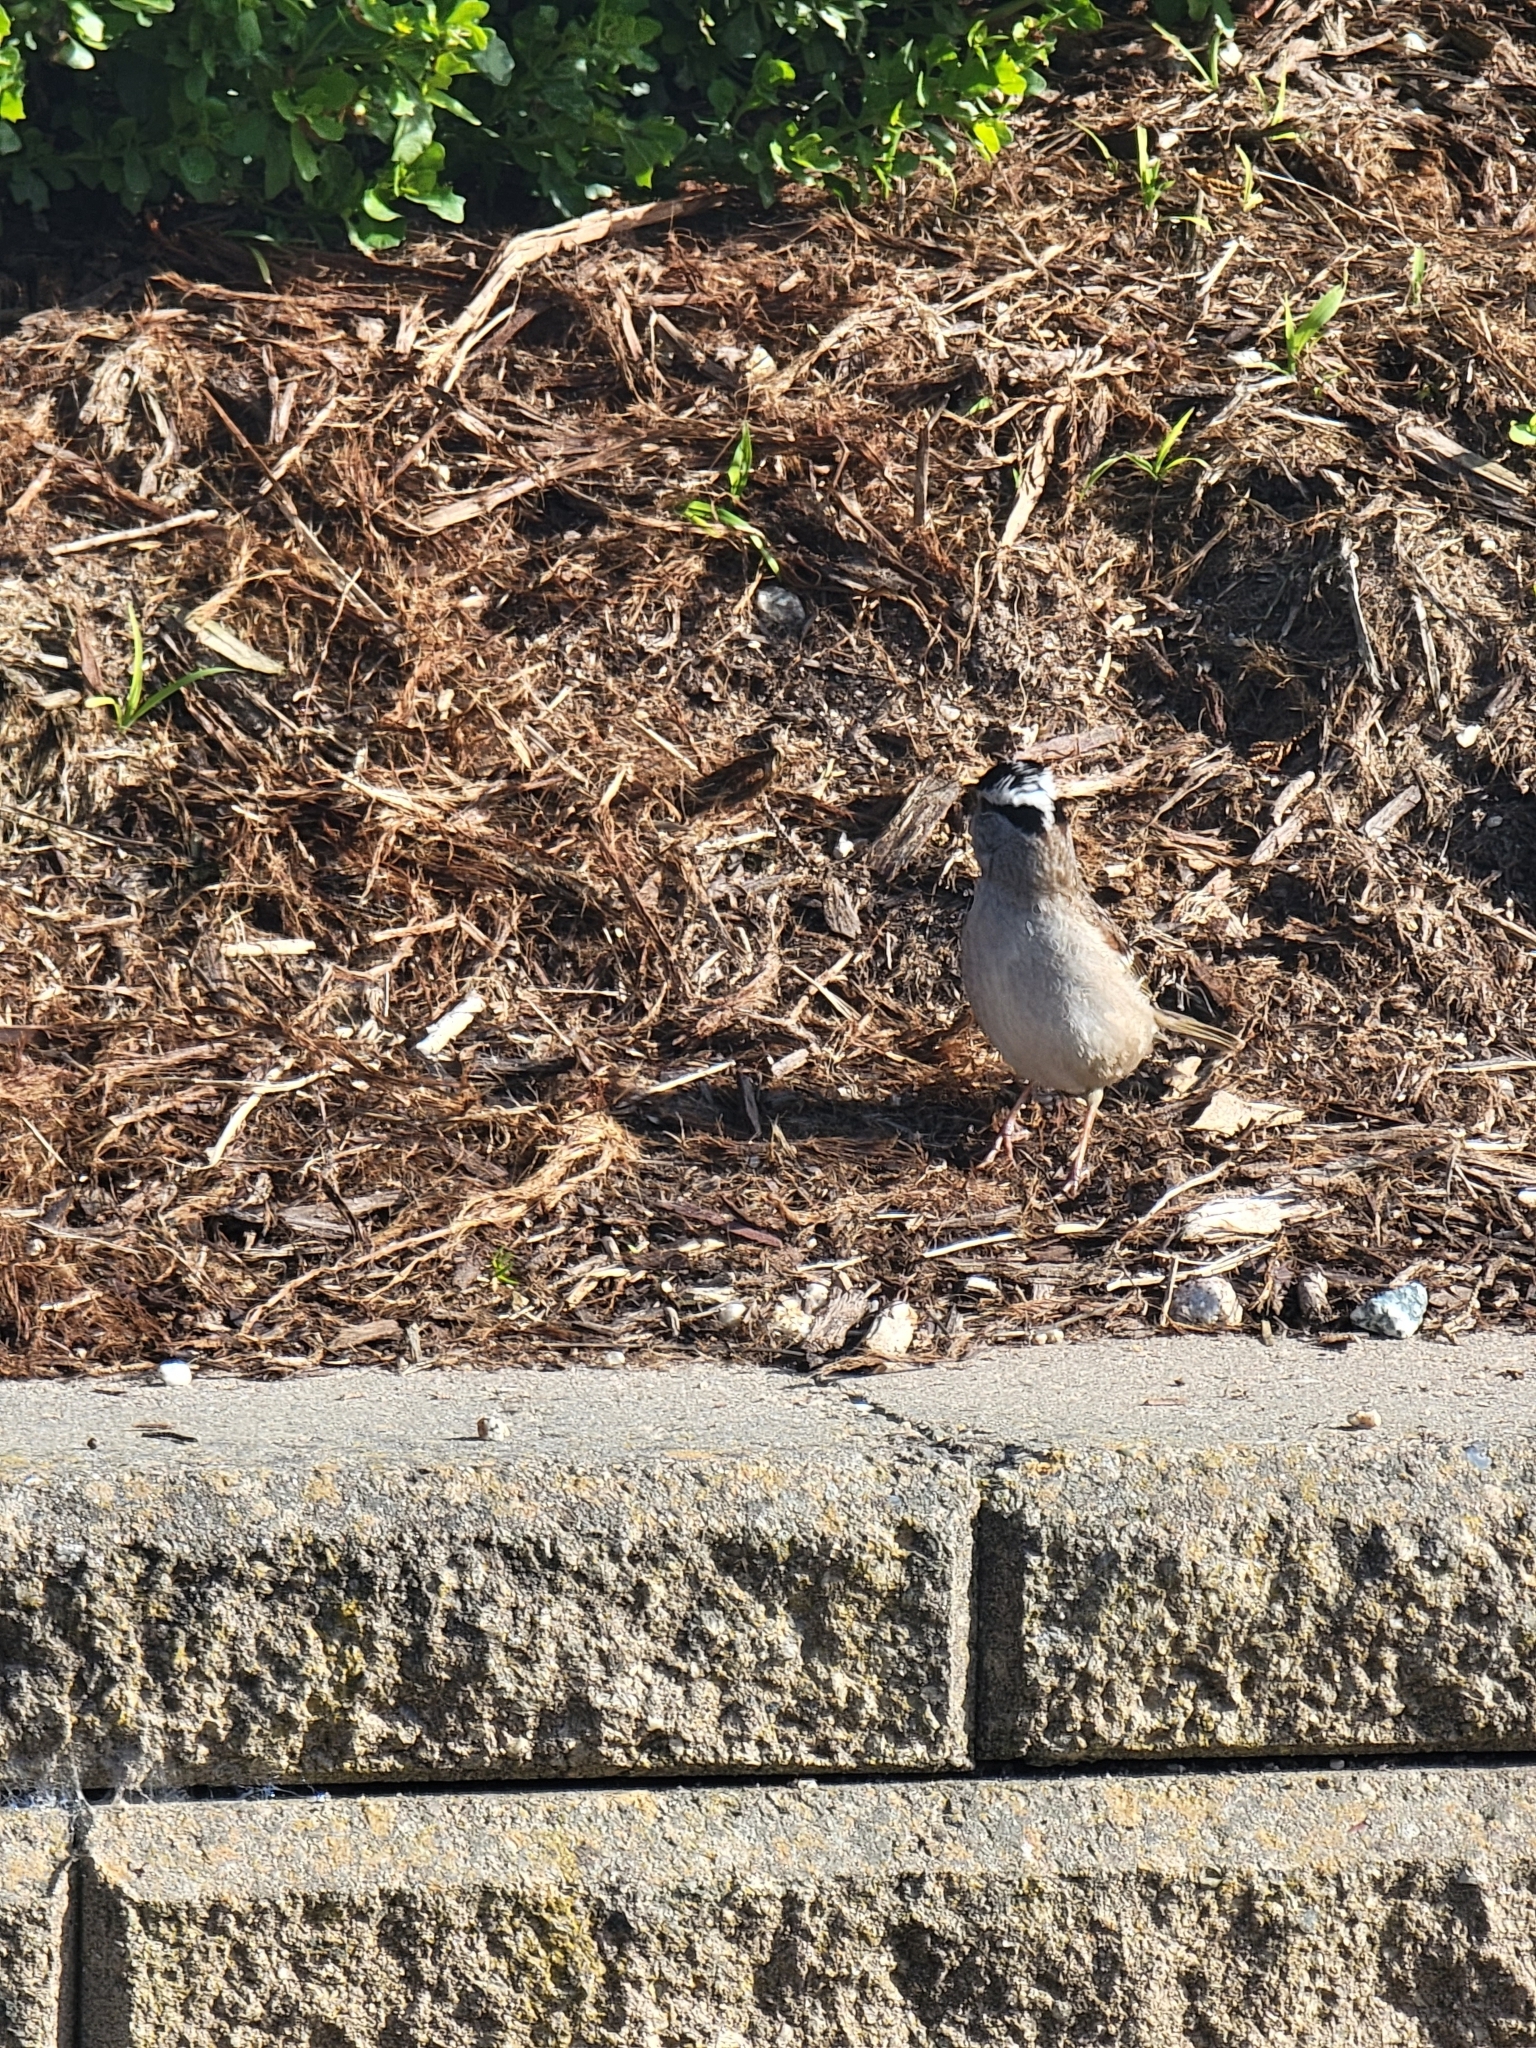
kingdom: Animalia
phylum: Chordata
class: Aves
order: Passeriformes
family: Passerellidae
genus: Zonotrichia
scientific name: Zonotrichia leucophrys
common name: White-crowned sparrow
